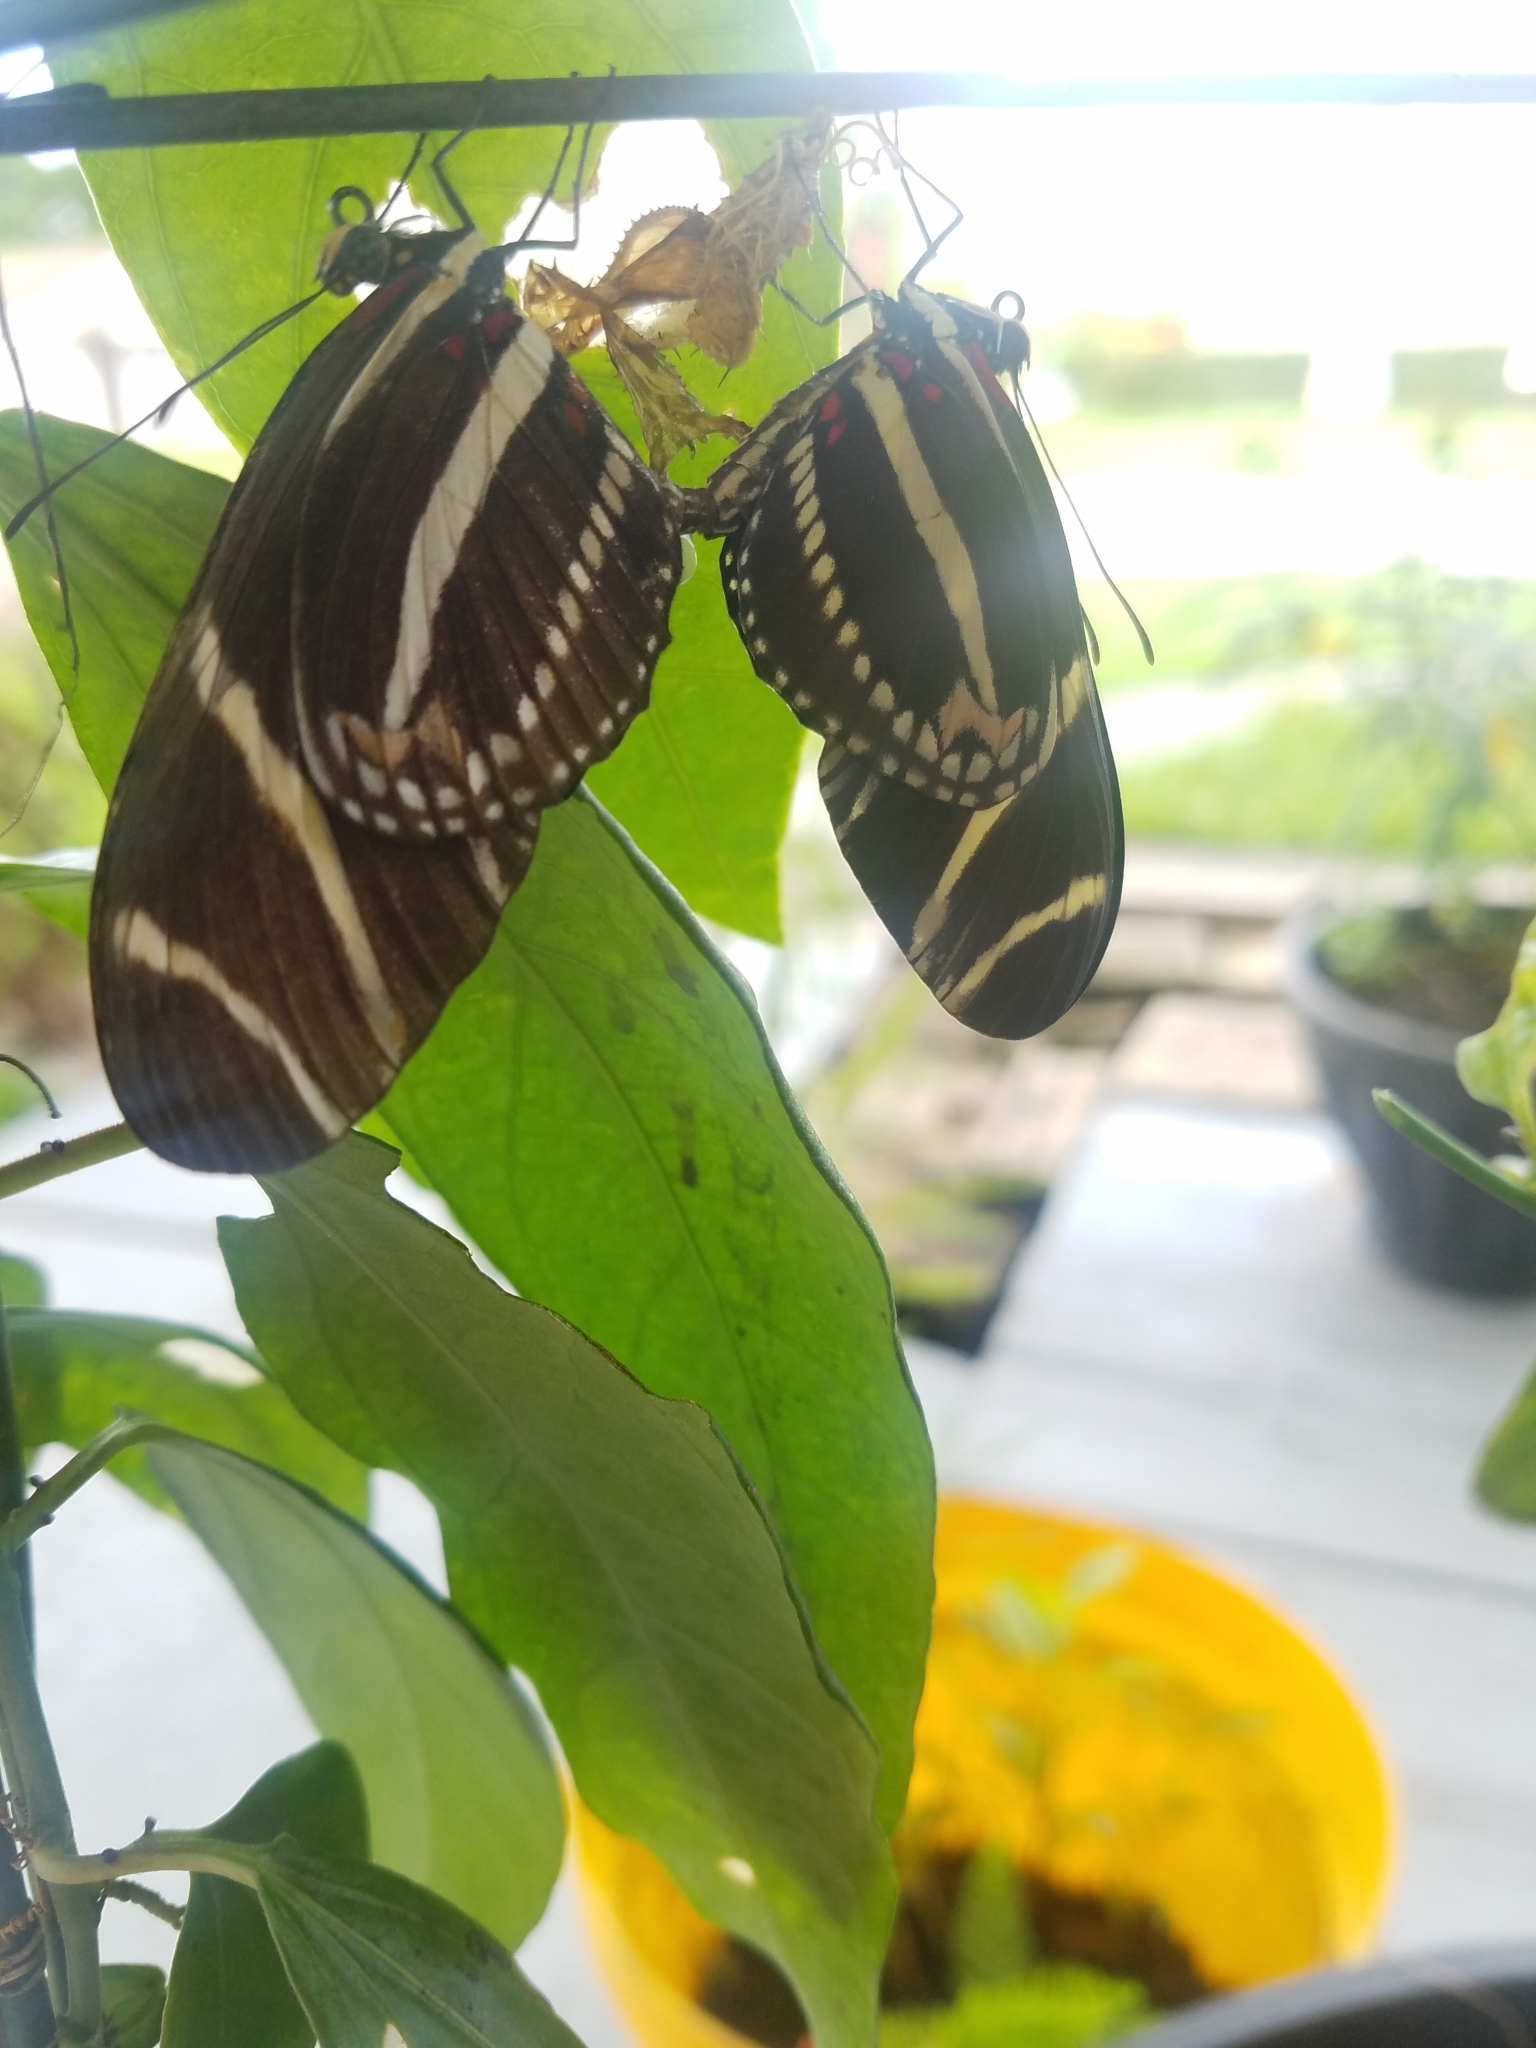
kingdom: Animalia
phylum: Arthropoda
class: Insecta
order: Lepidoptera
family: Nymphalidae
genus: Heliconius
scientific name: Heliconius charithonia
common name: Zebra long wing
